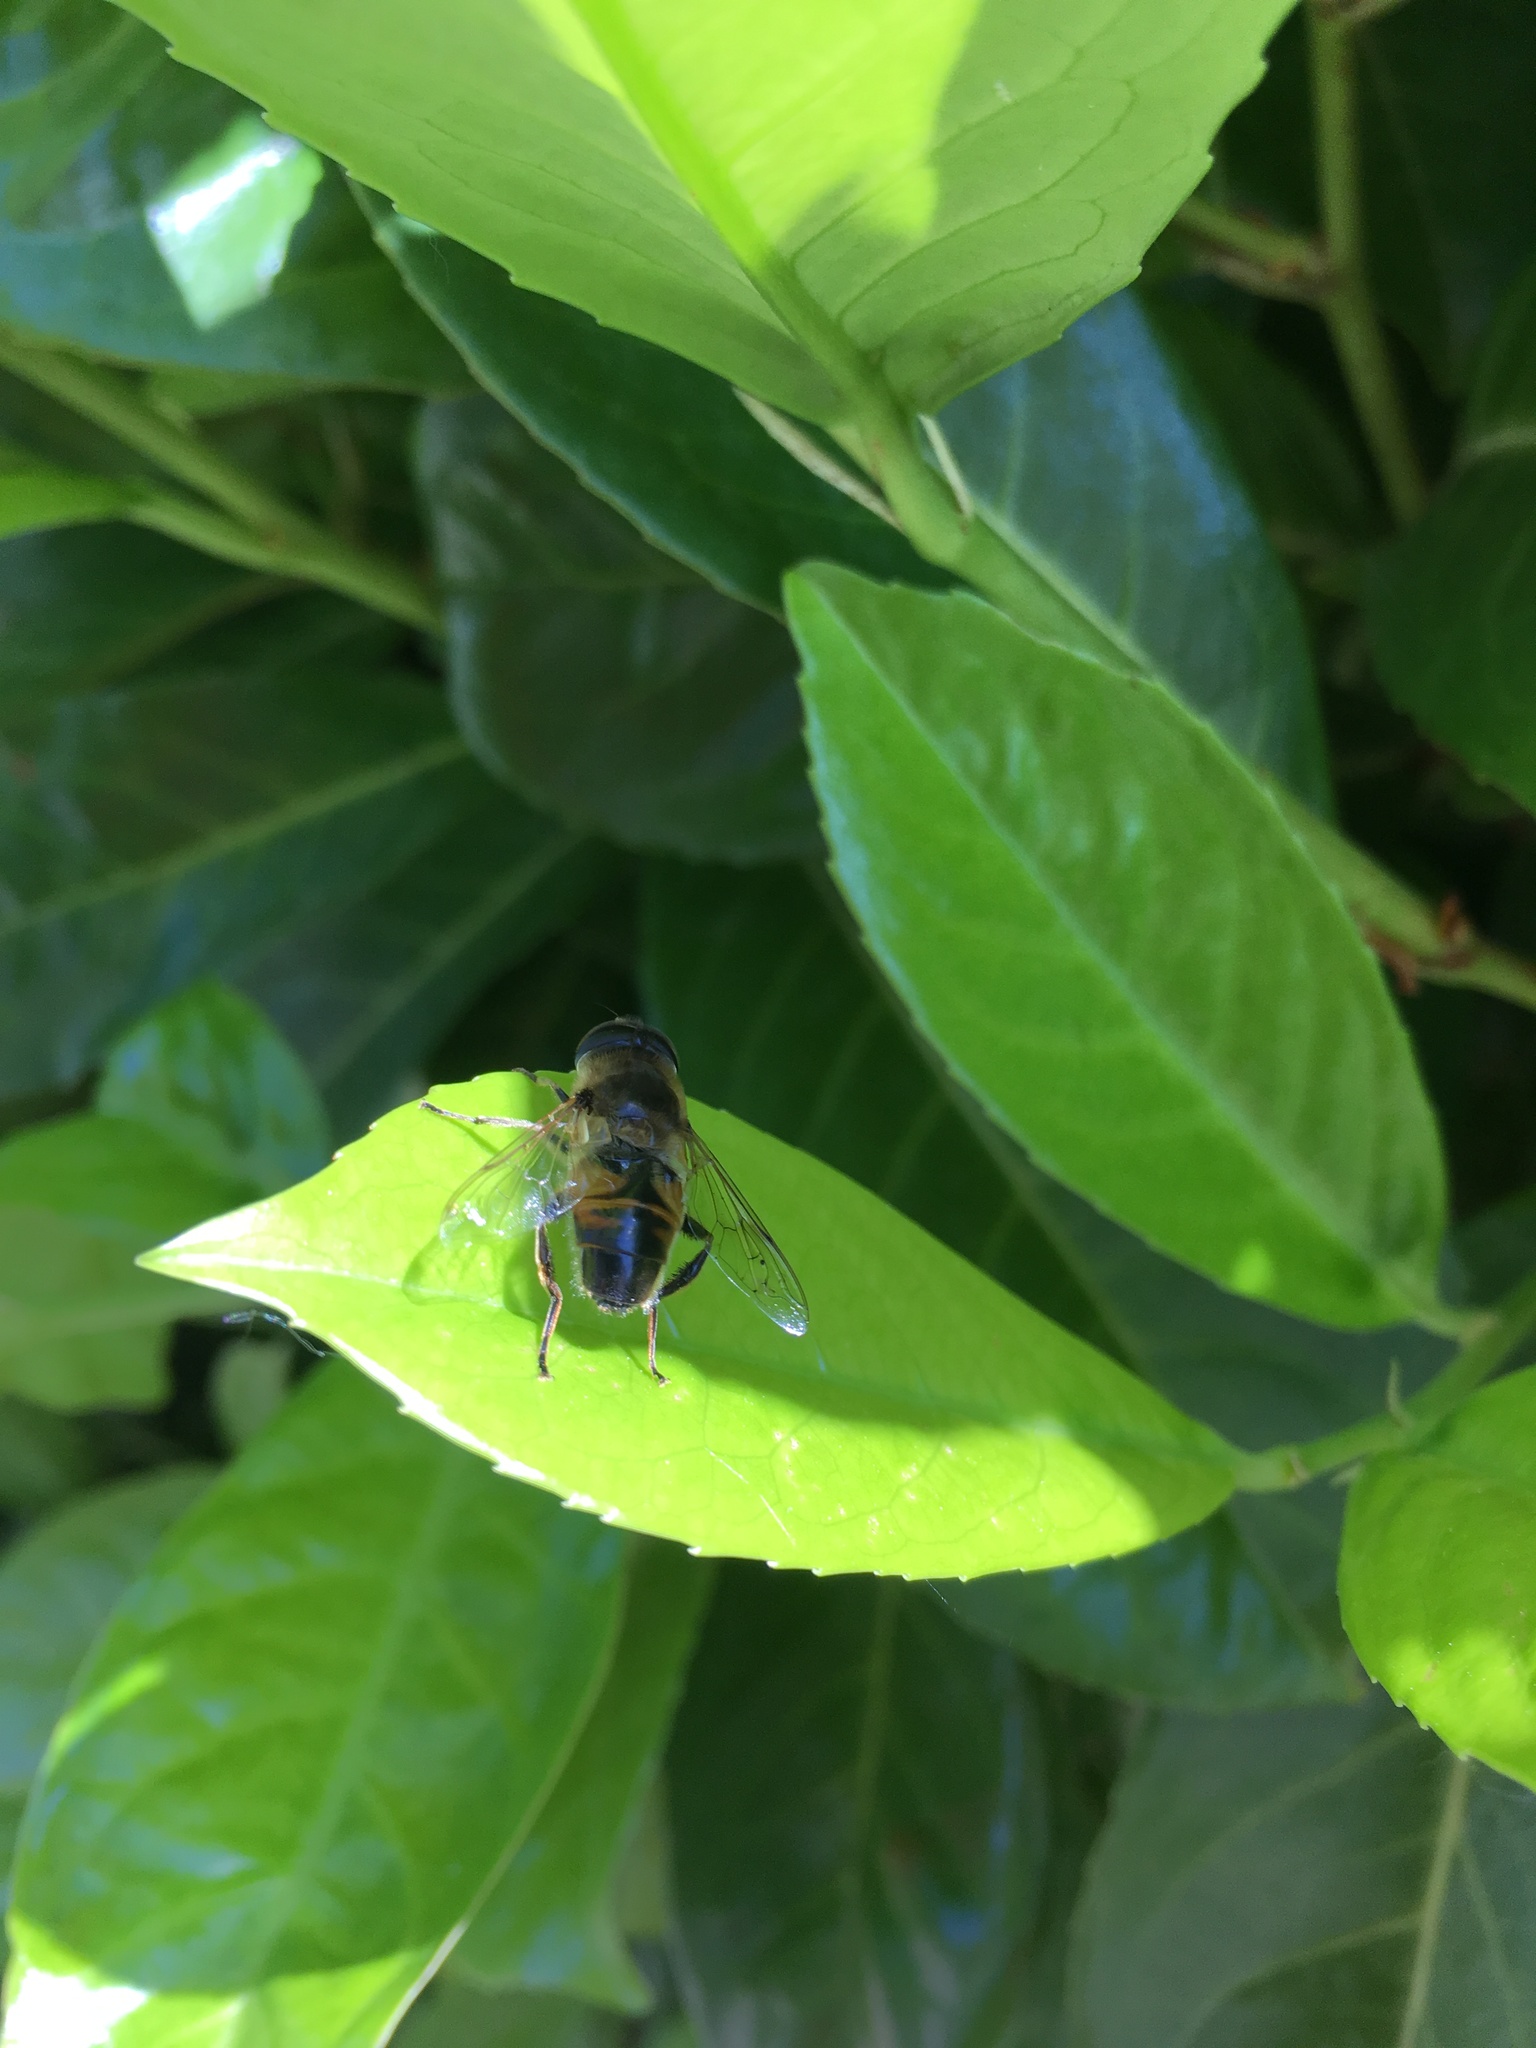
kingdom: Animalia
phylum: Arthropoda
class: Insecta
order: Diptera
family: Syrphidae
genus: Eristalis
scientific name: Eristalis tenax
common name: Drone fly
